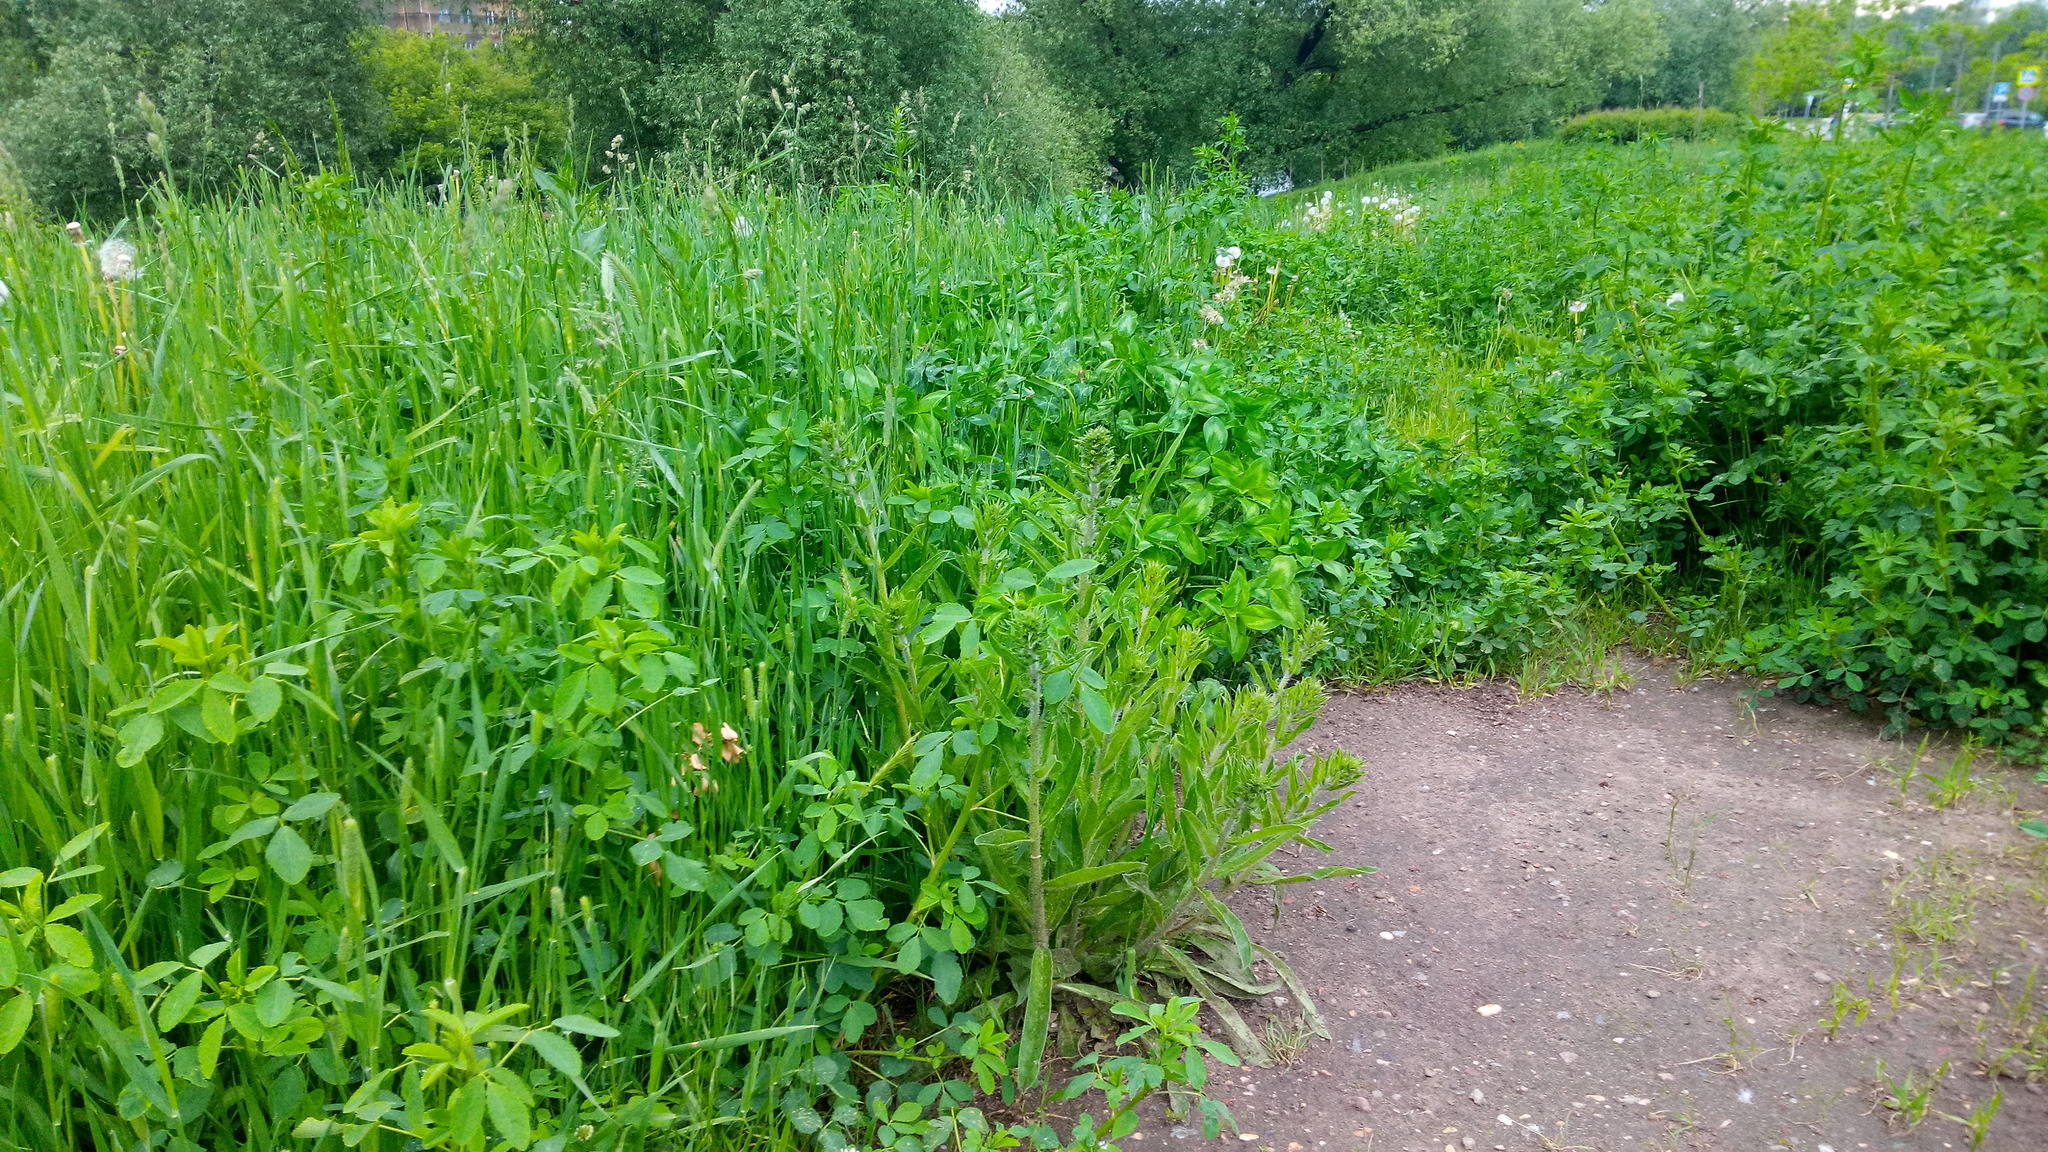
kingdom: Plantae
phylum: Tracheophyta
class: Magnoliopsida
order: Boraginales
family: Boraginaceae
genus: Echium
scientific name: Echium vulgare
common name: Common viper's bugloss
